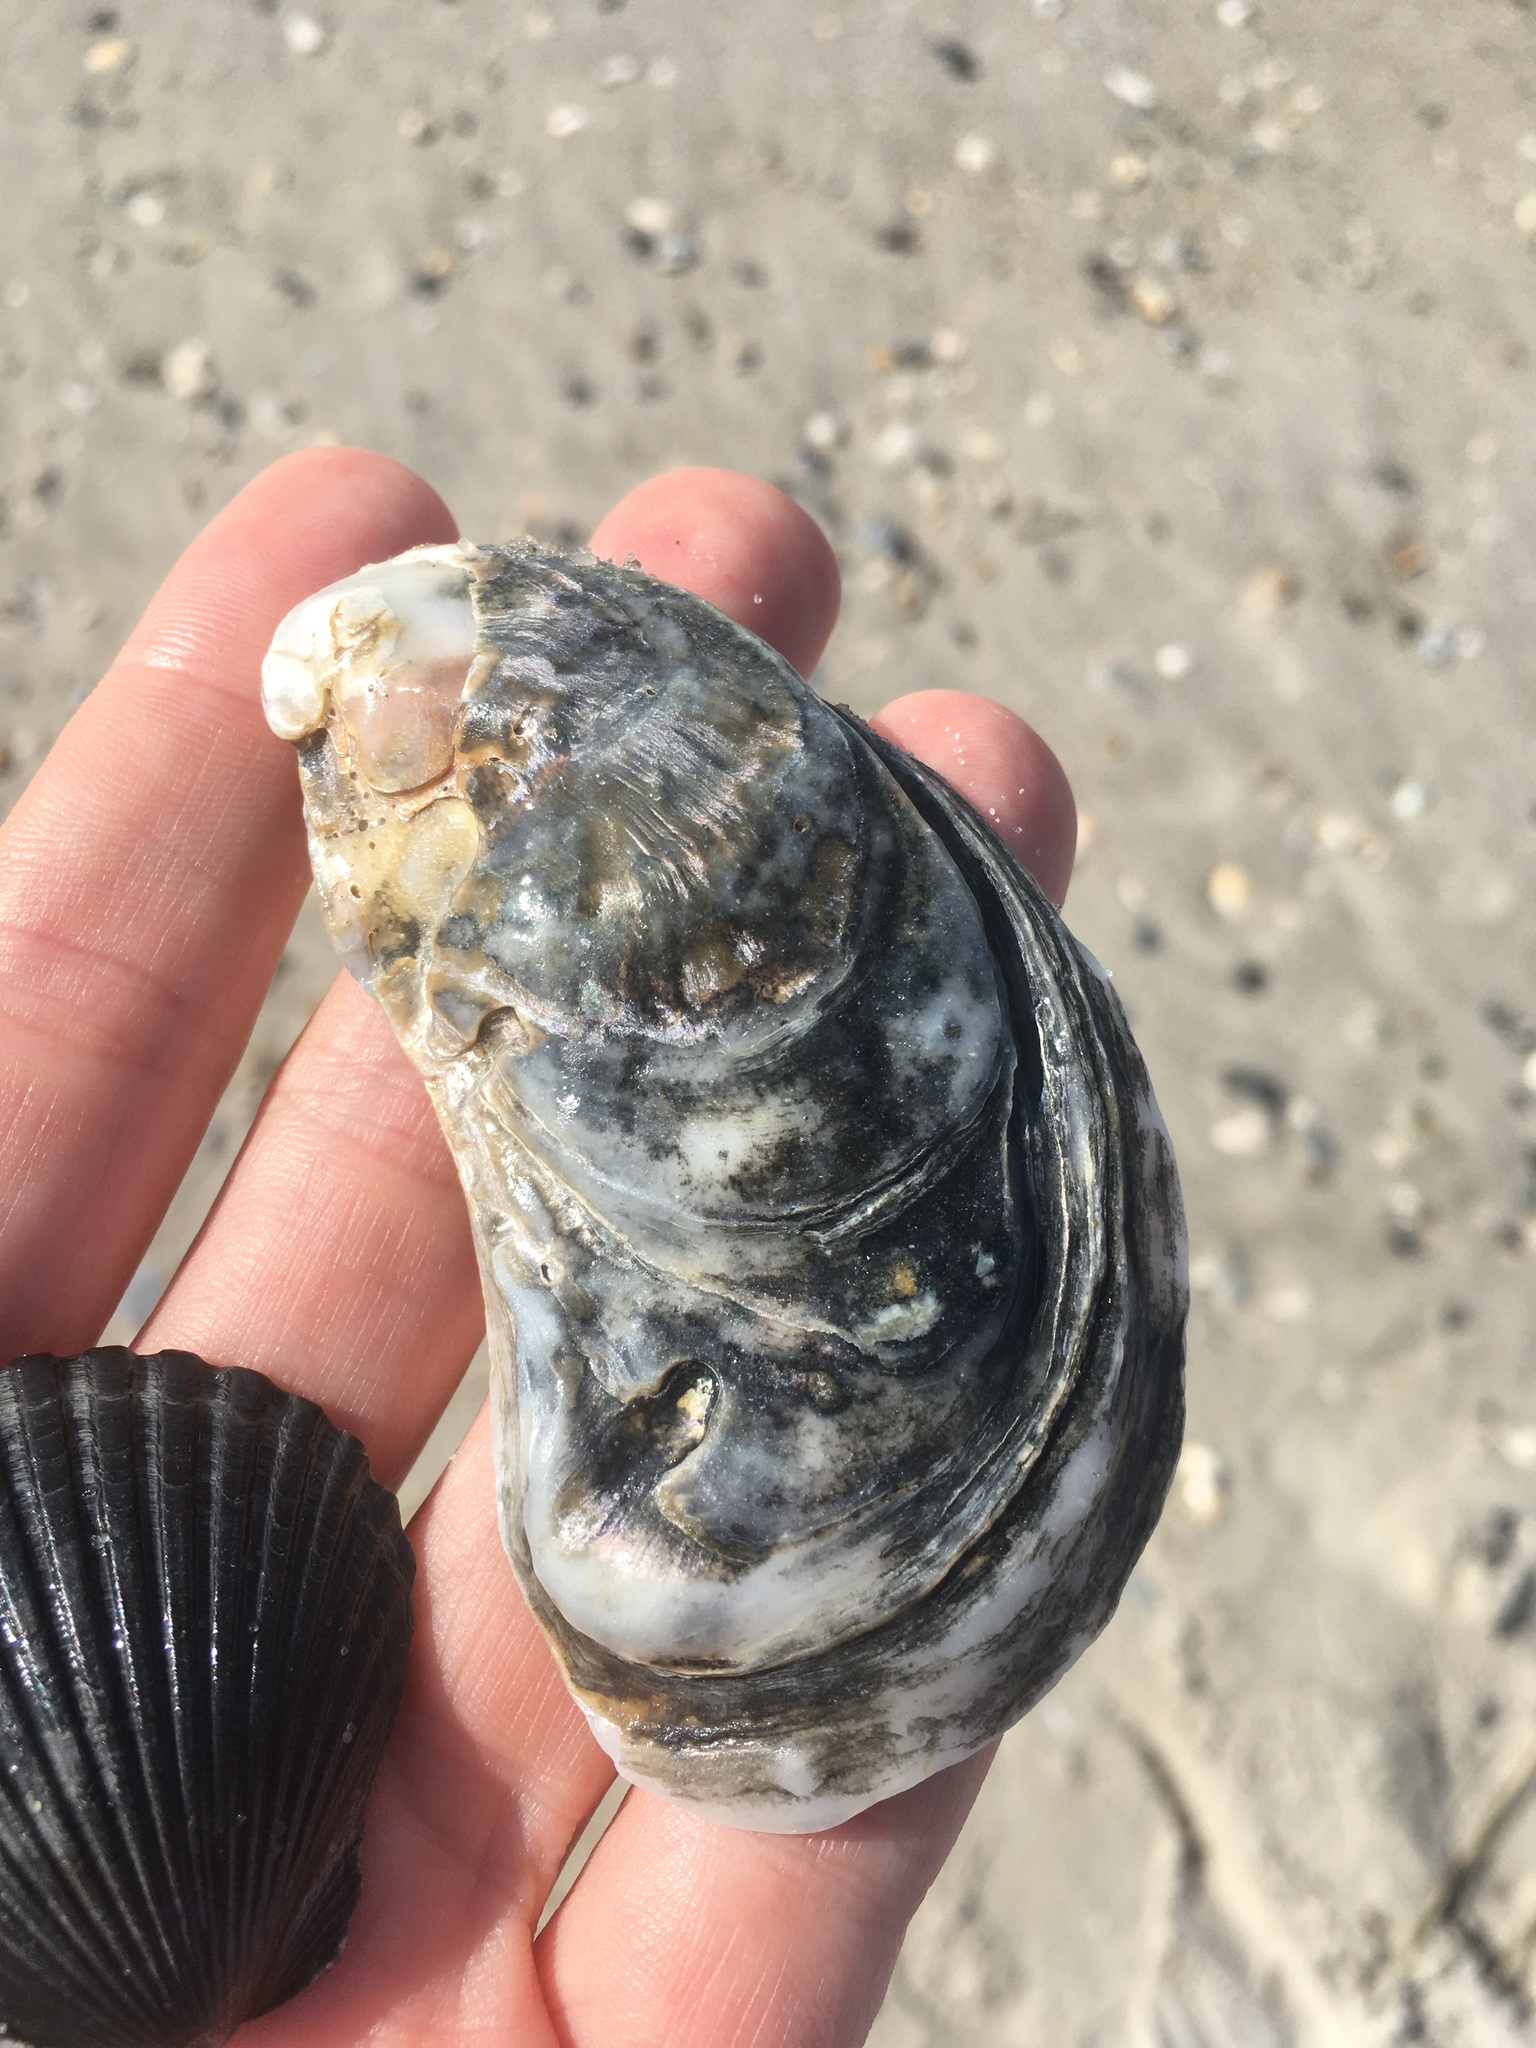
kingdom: Animalia
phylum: Mollusca
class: Bivalvia
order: Ostreida
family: Ostreidae
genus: Crassostrea
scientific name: Crassostrea virginica
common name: American oyster
